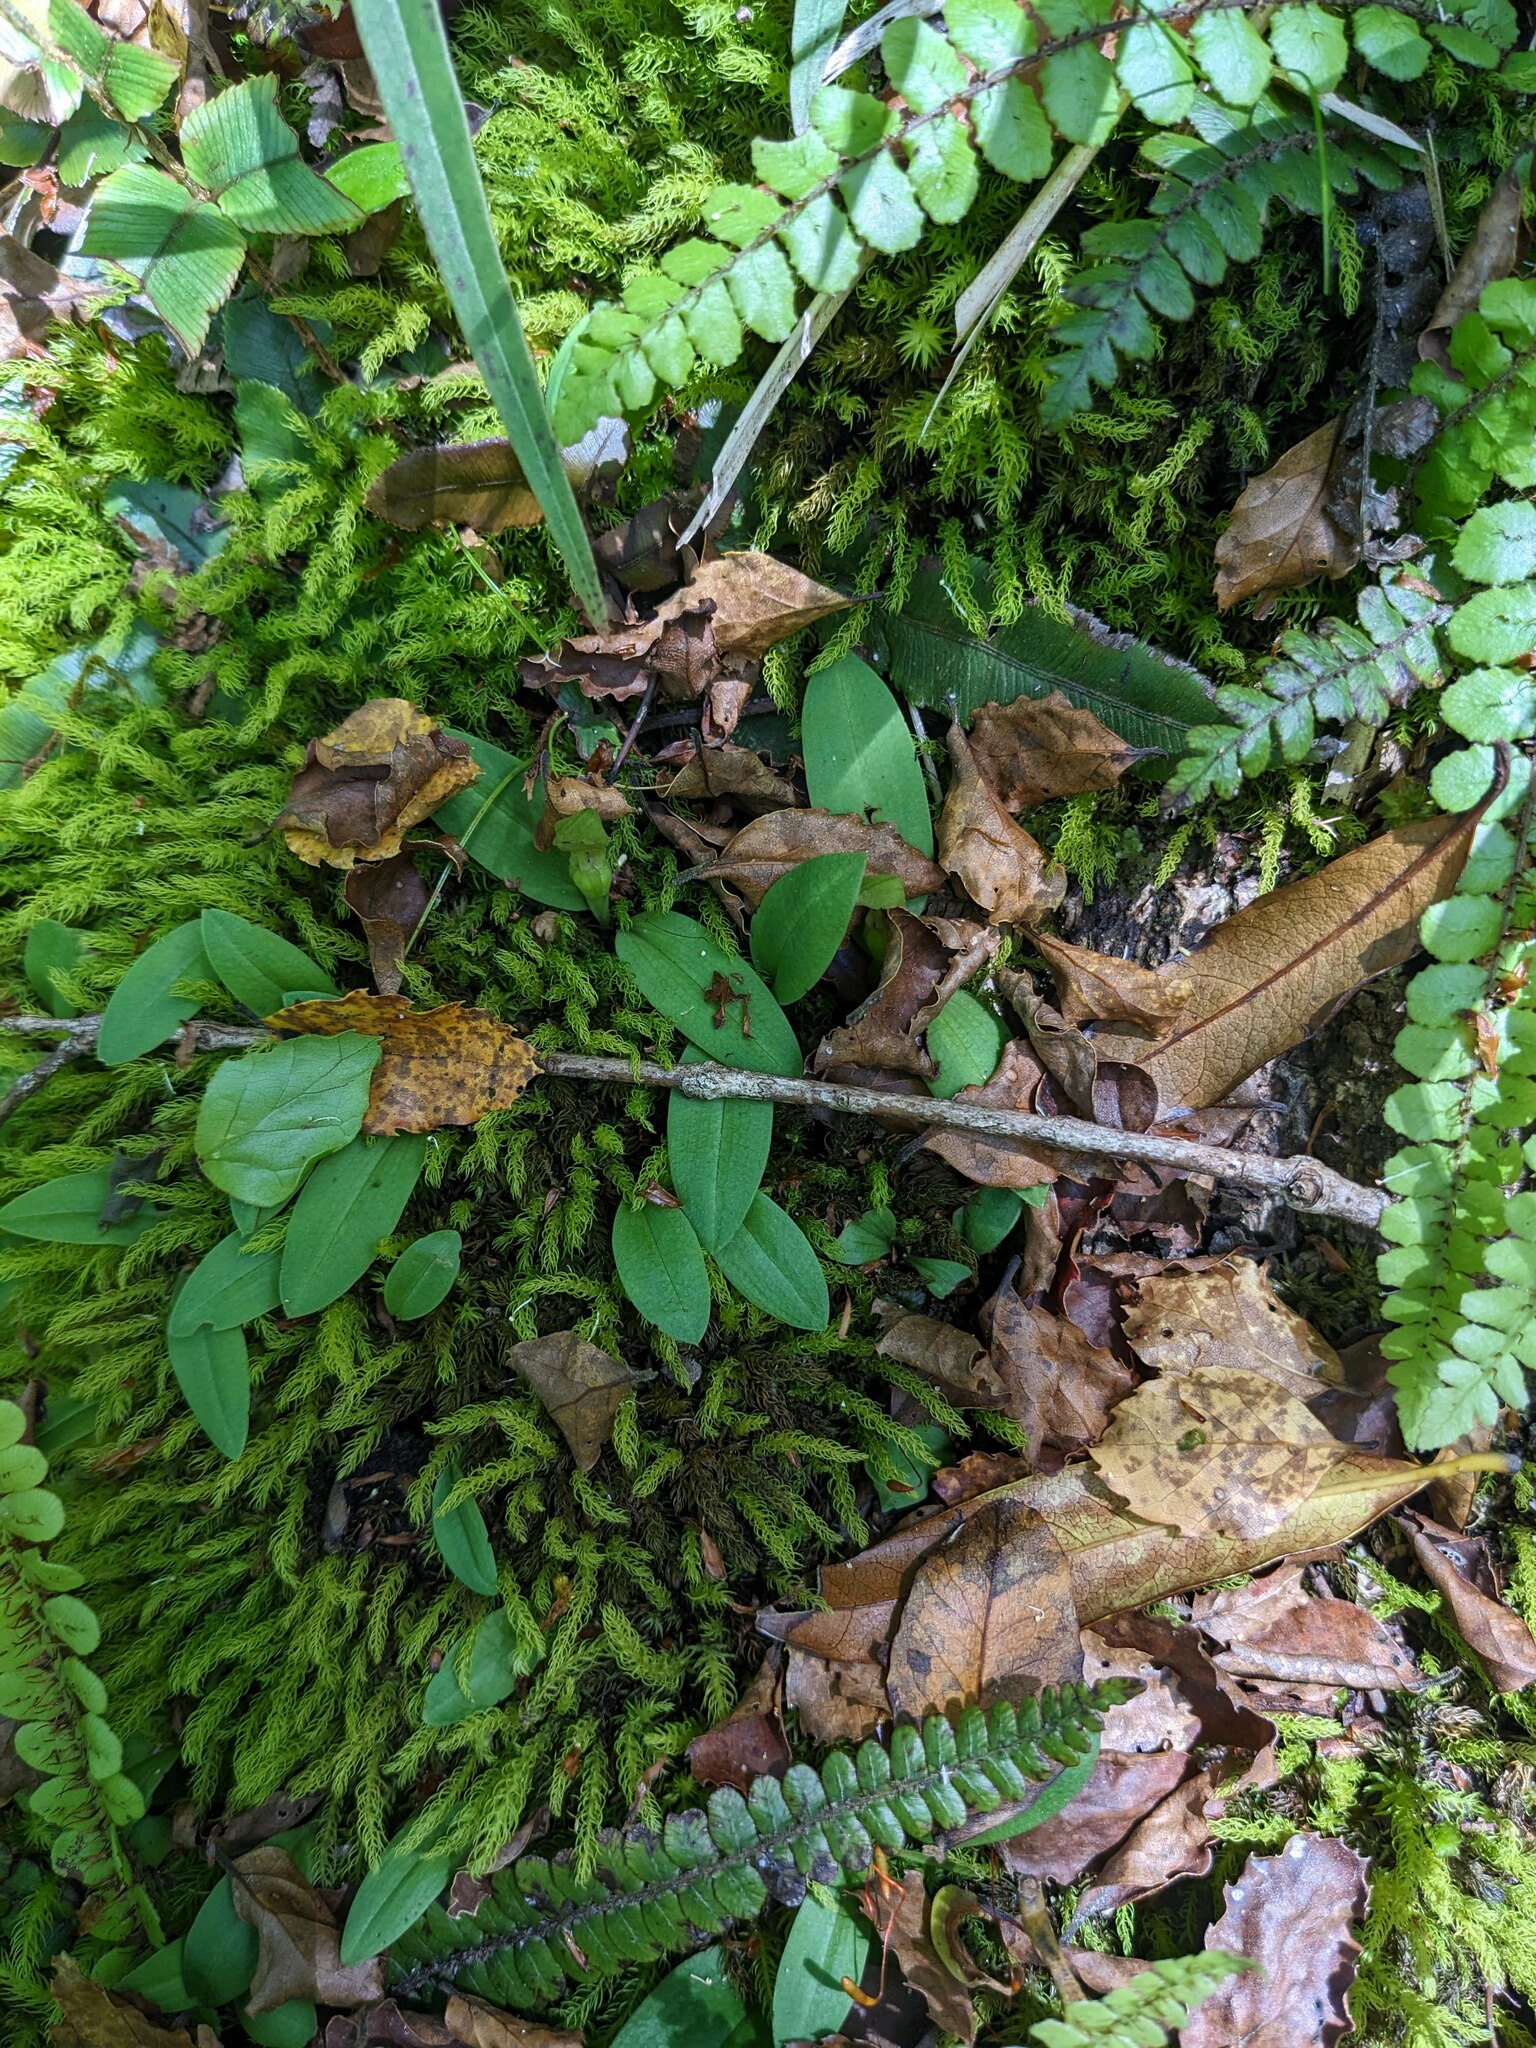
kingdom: Plantae
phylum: Tracheophyta
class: Liliopsida
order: Asparagales
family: Orchidaceae
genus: Chiloglottis
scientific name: Chiloglottis cornuta
